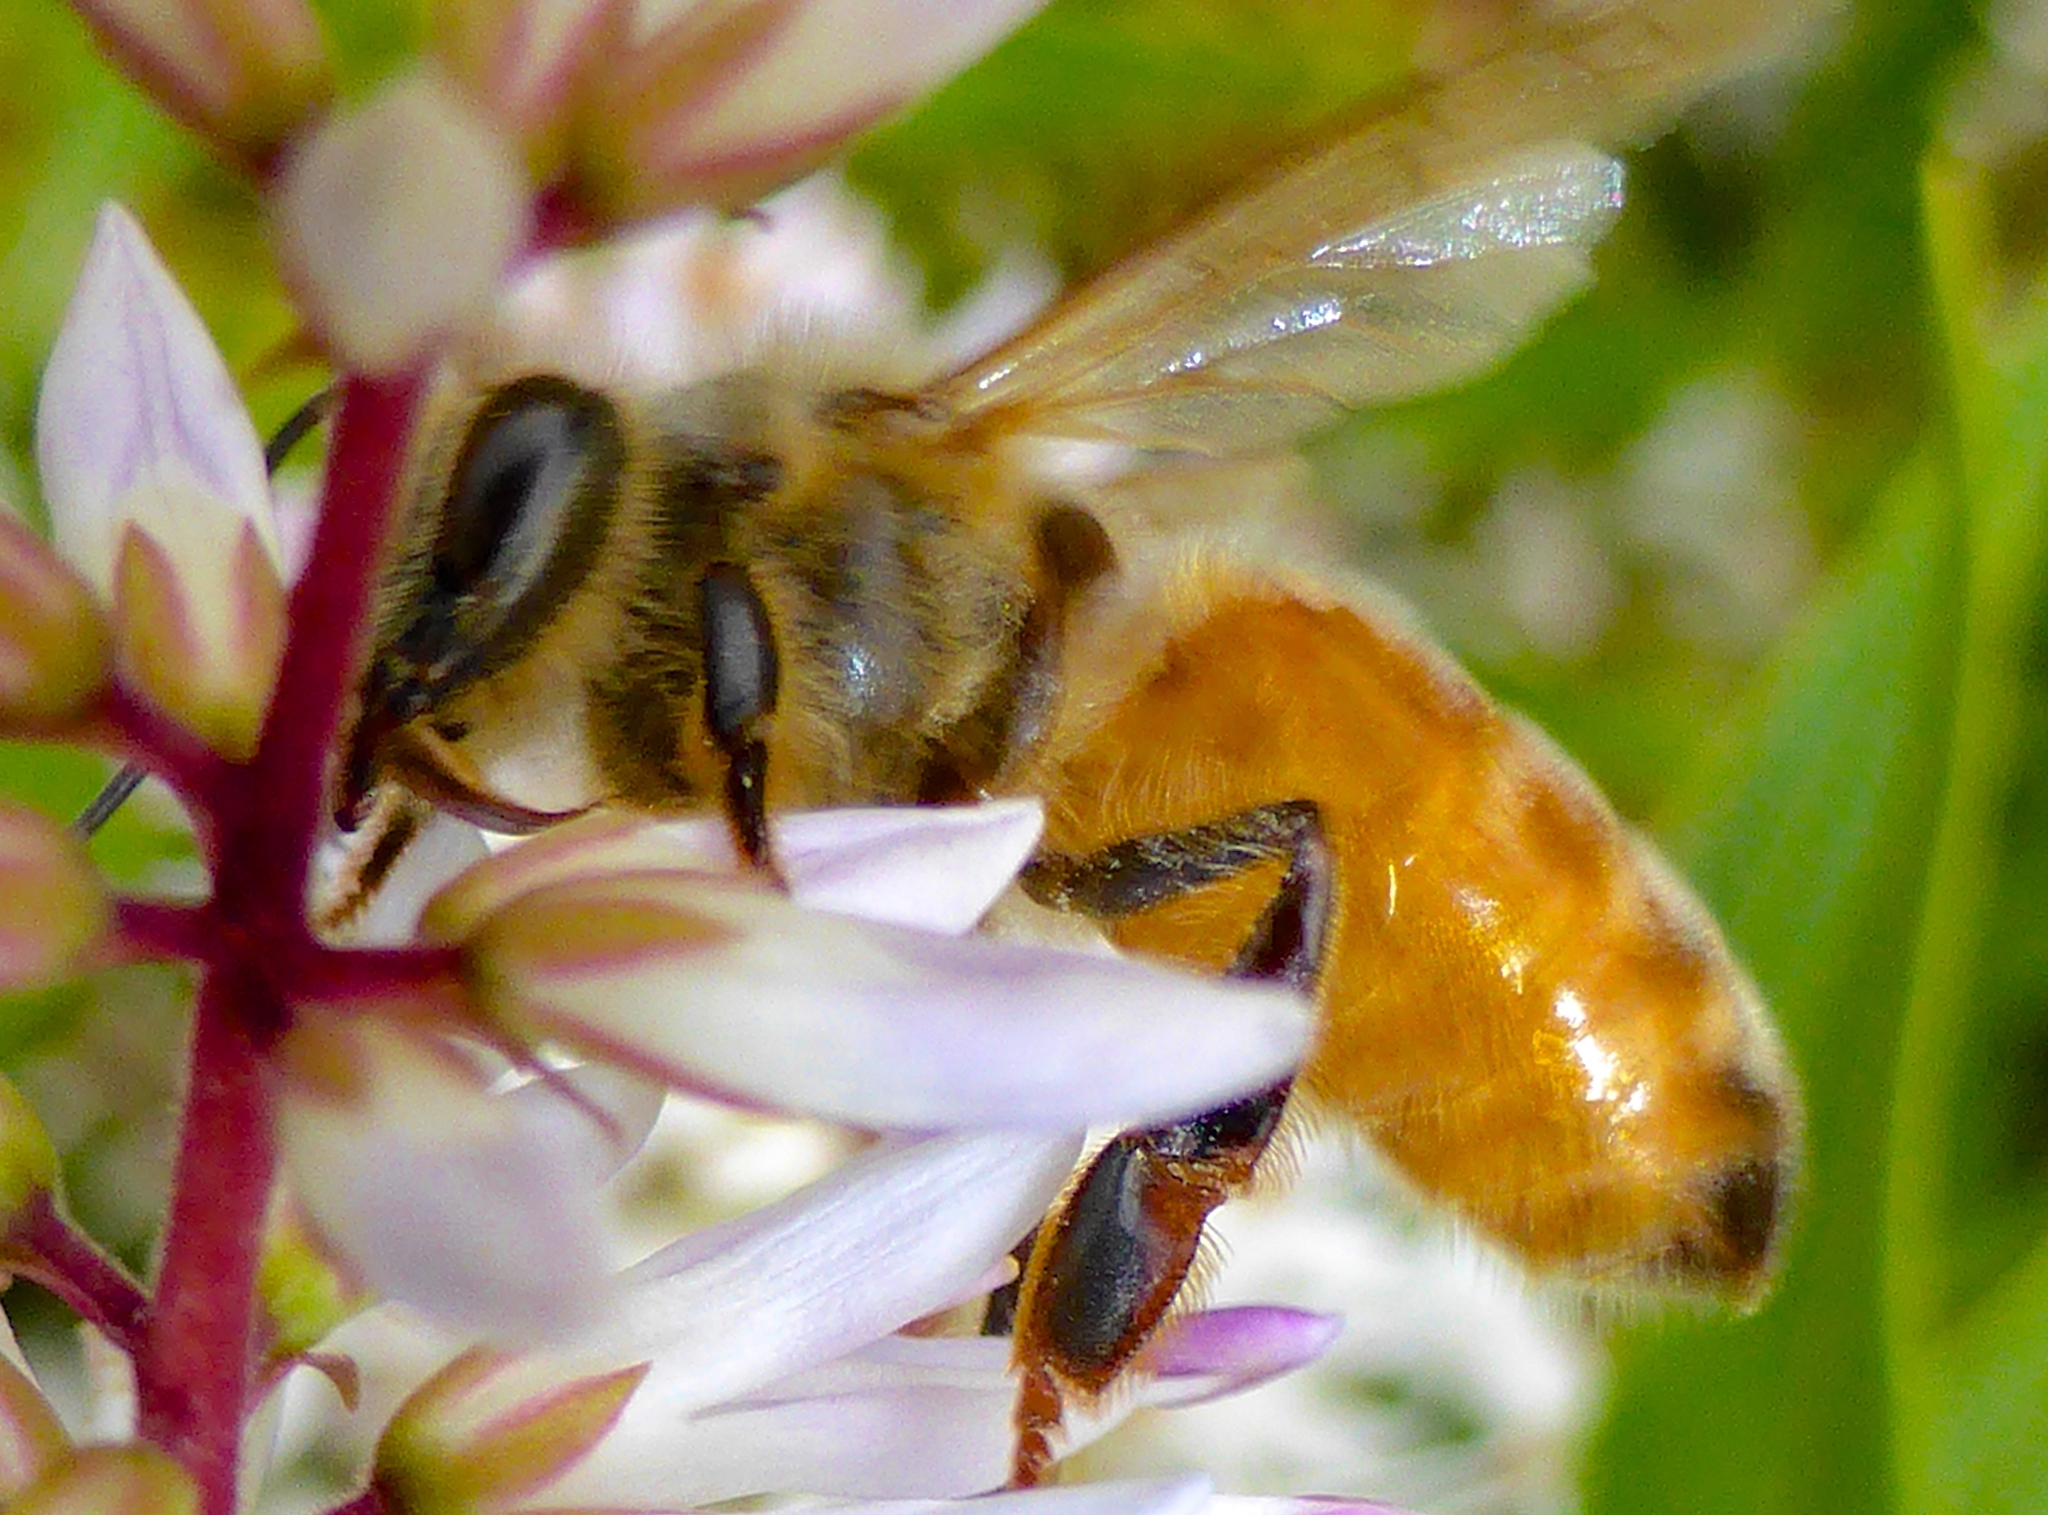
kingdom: Animalia
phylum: Arthropoda
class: Insecta
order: Hymenoptera
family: Apidae
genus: Apis
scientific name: Apis mellifera
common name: Honey bee
